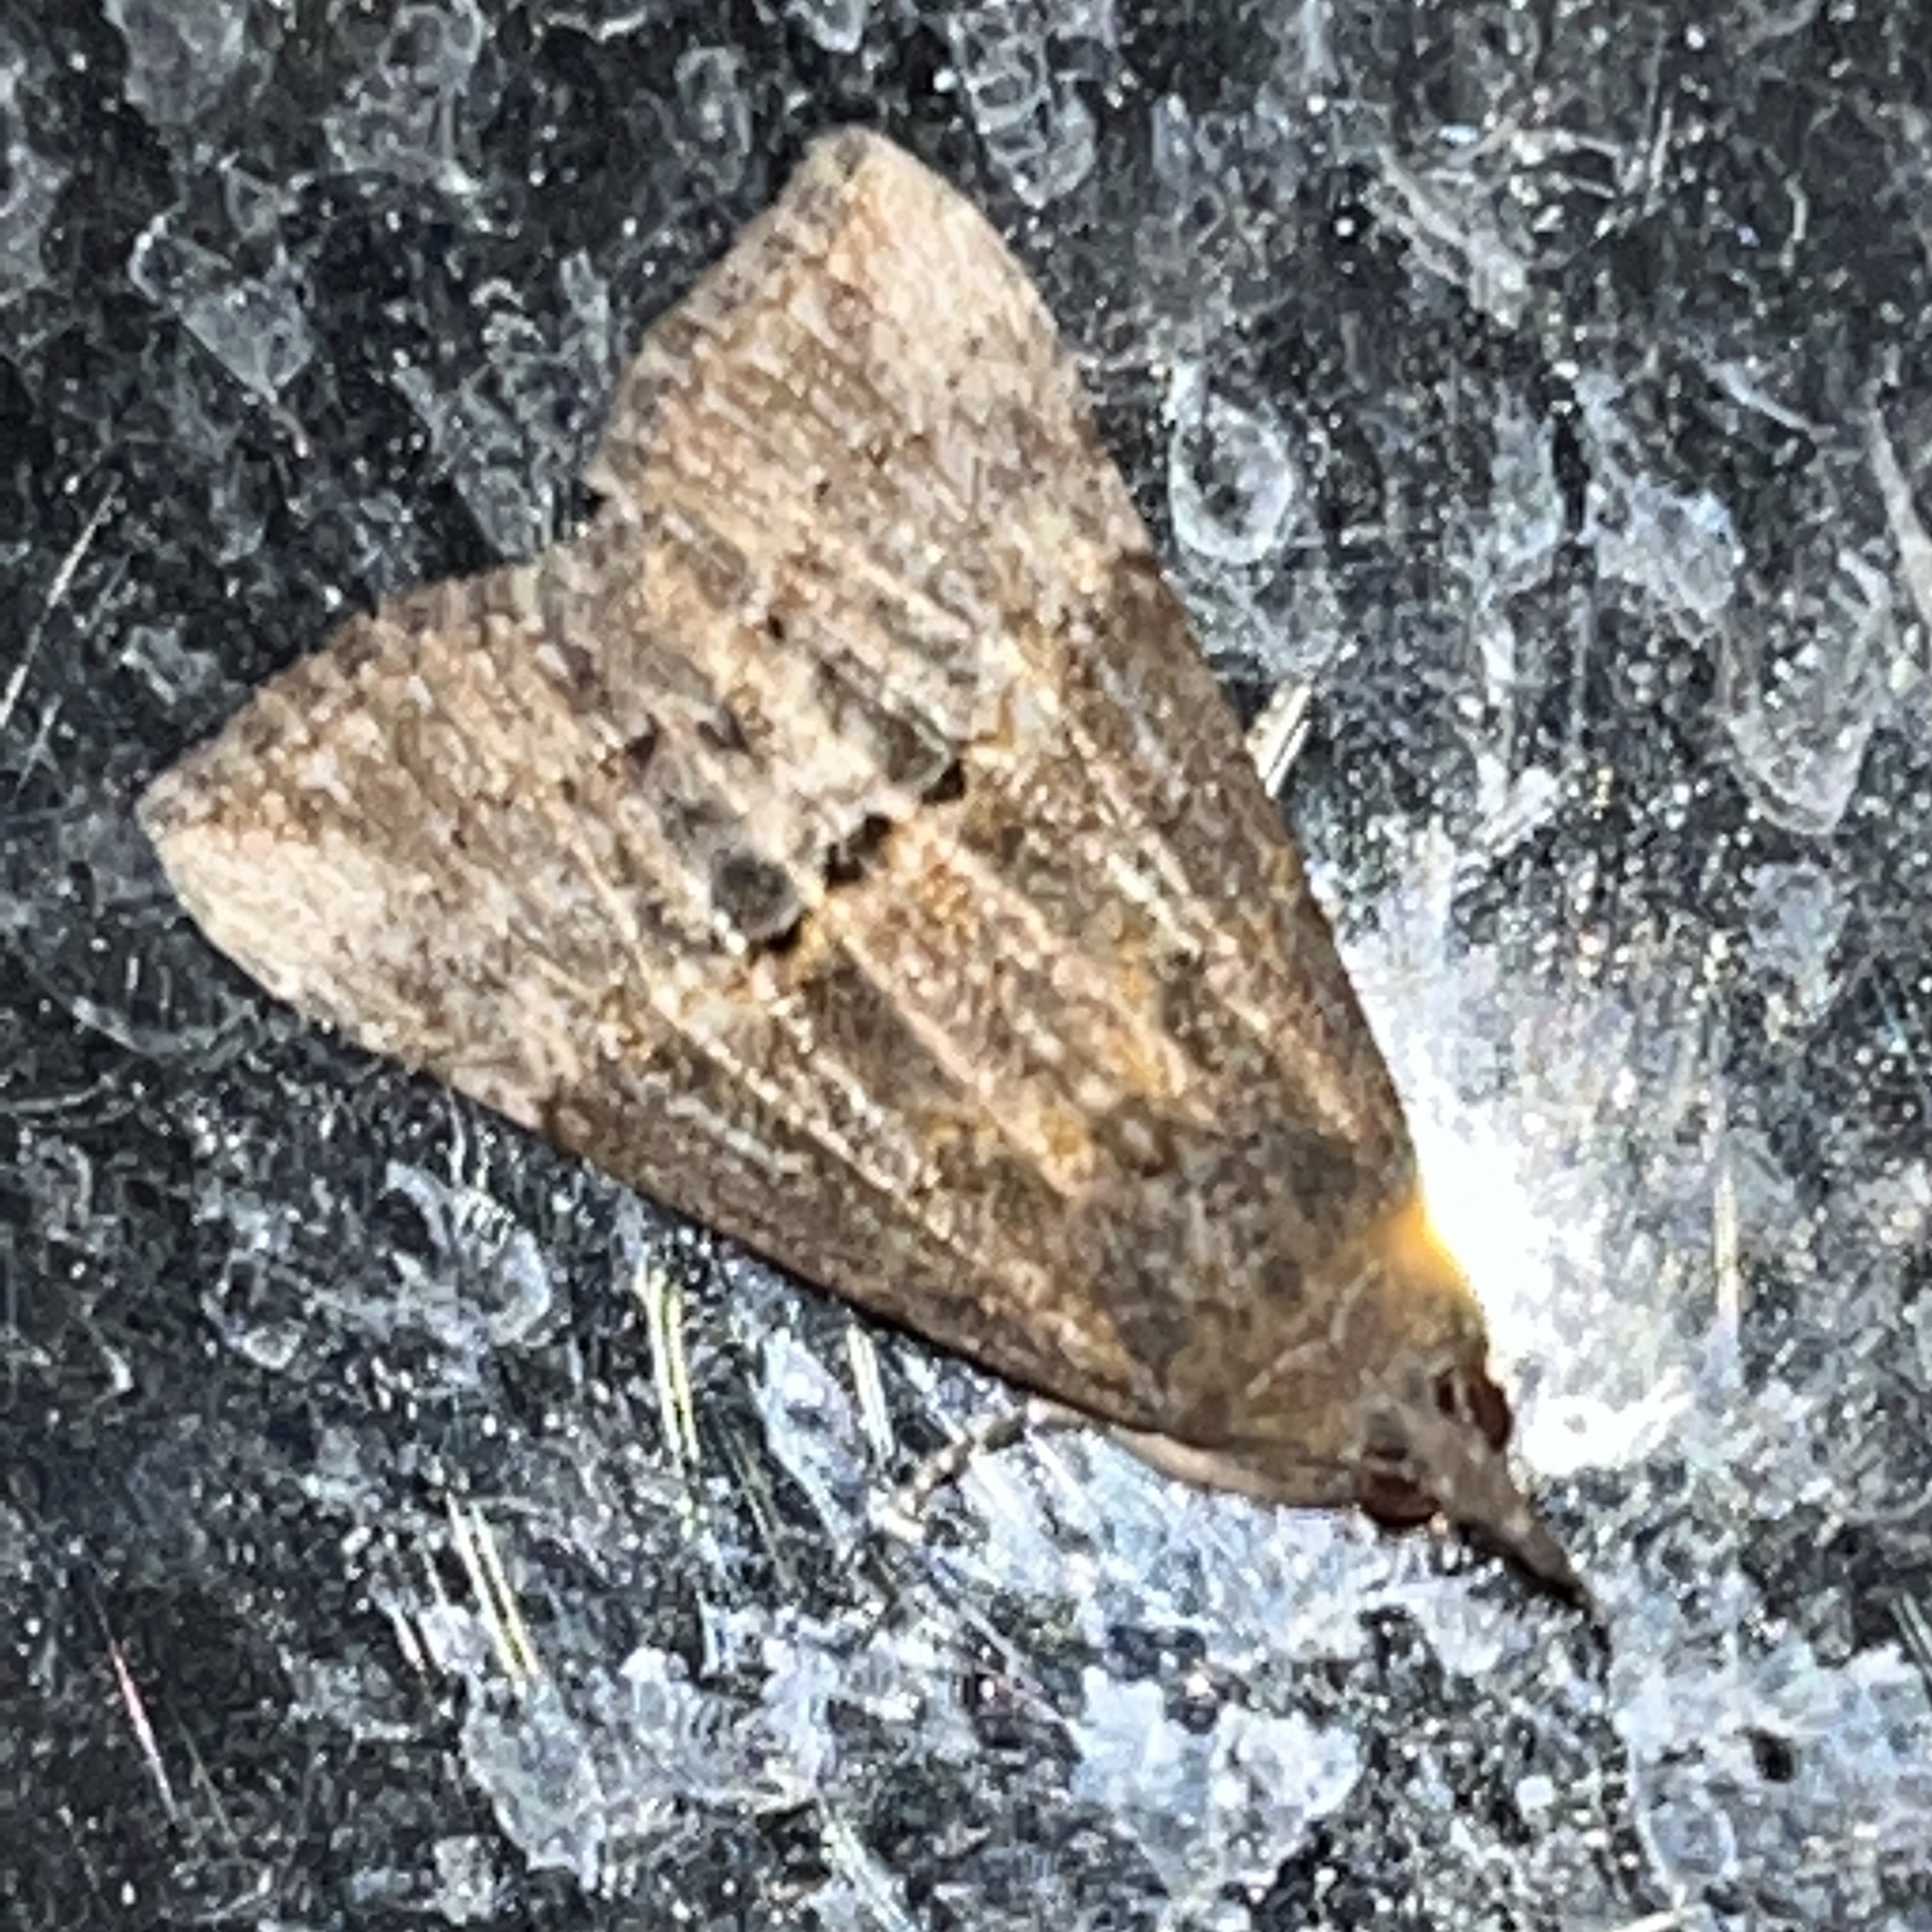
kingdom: Animalia
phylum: Arthropoda
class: Insecta
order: Lepidoptera
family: Erebidae
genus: Hypena
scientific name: Hypena scabra
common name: Green cloverworm
